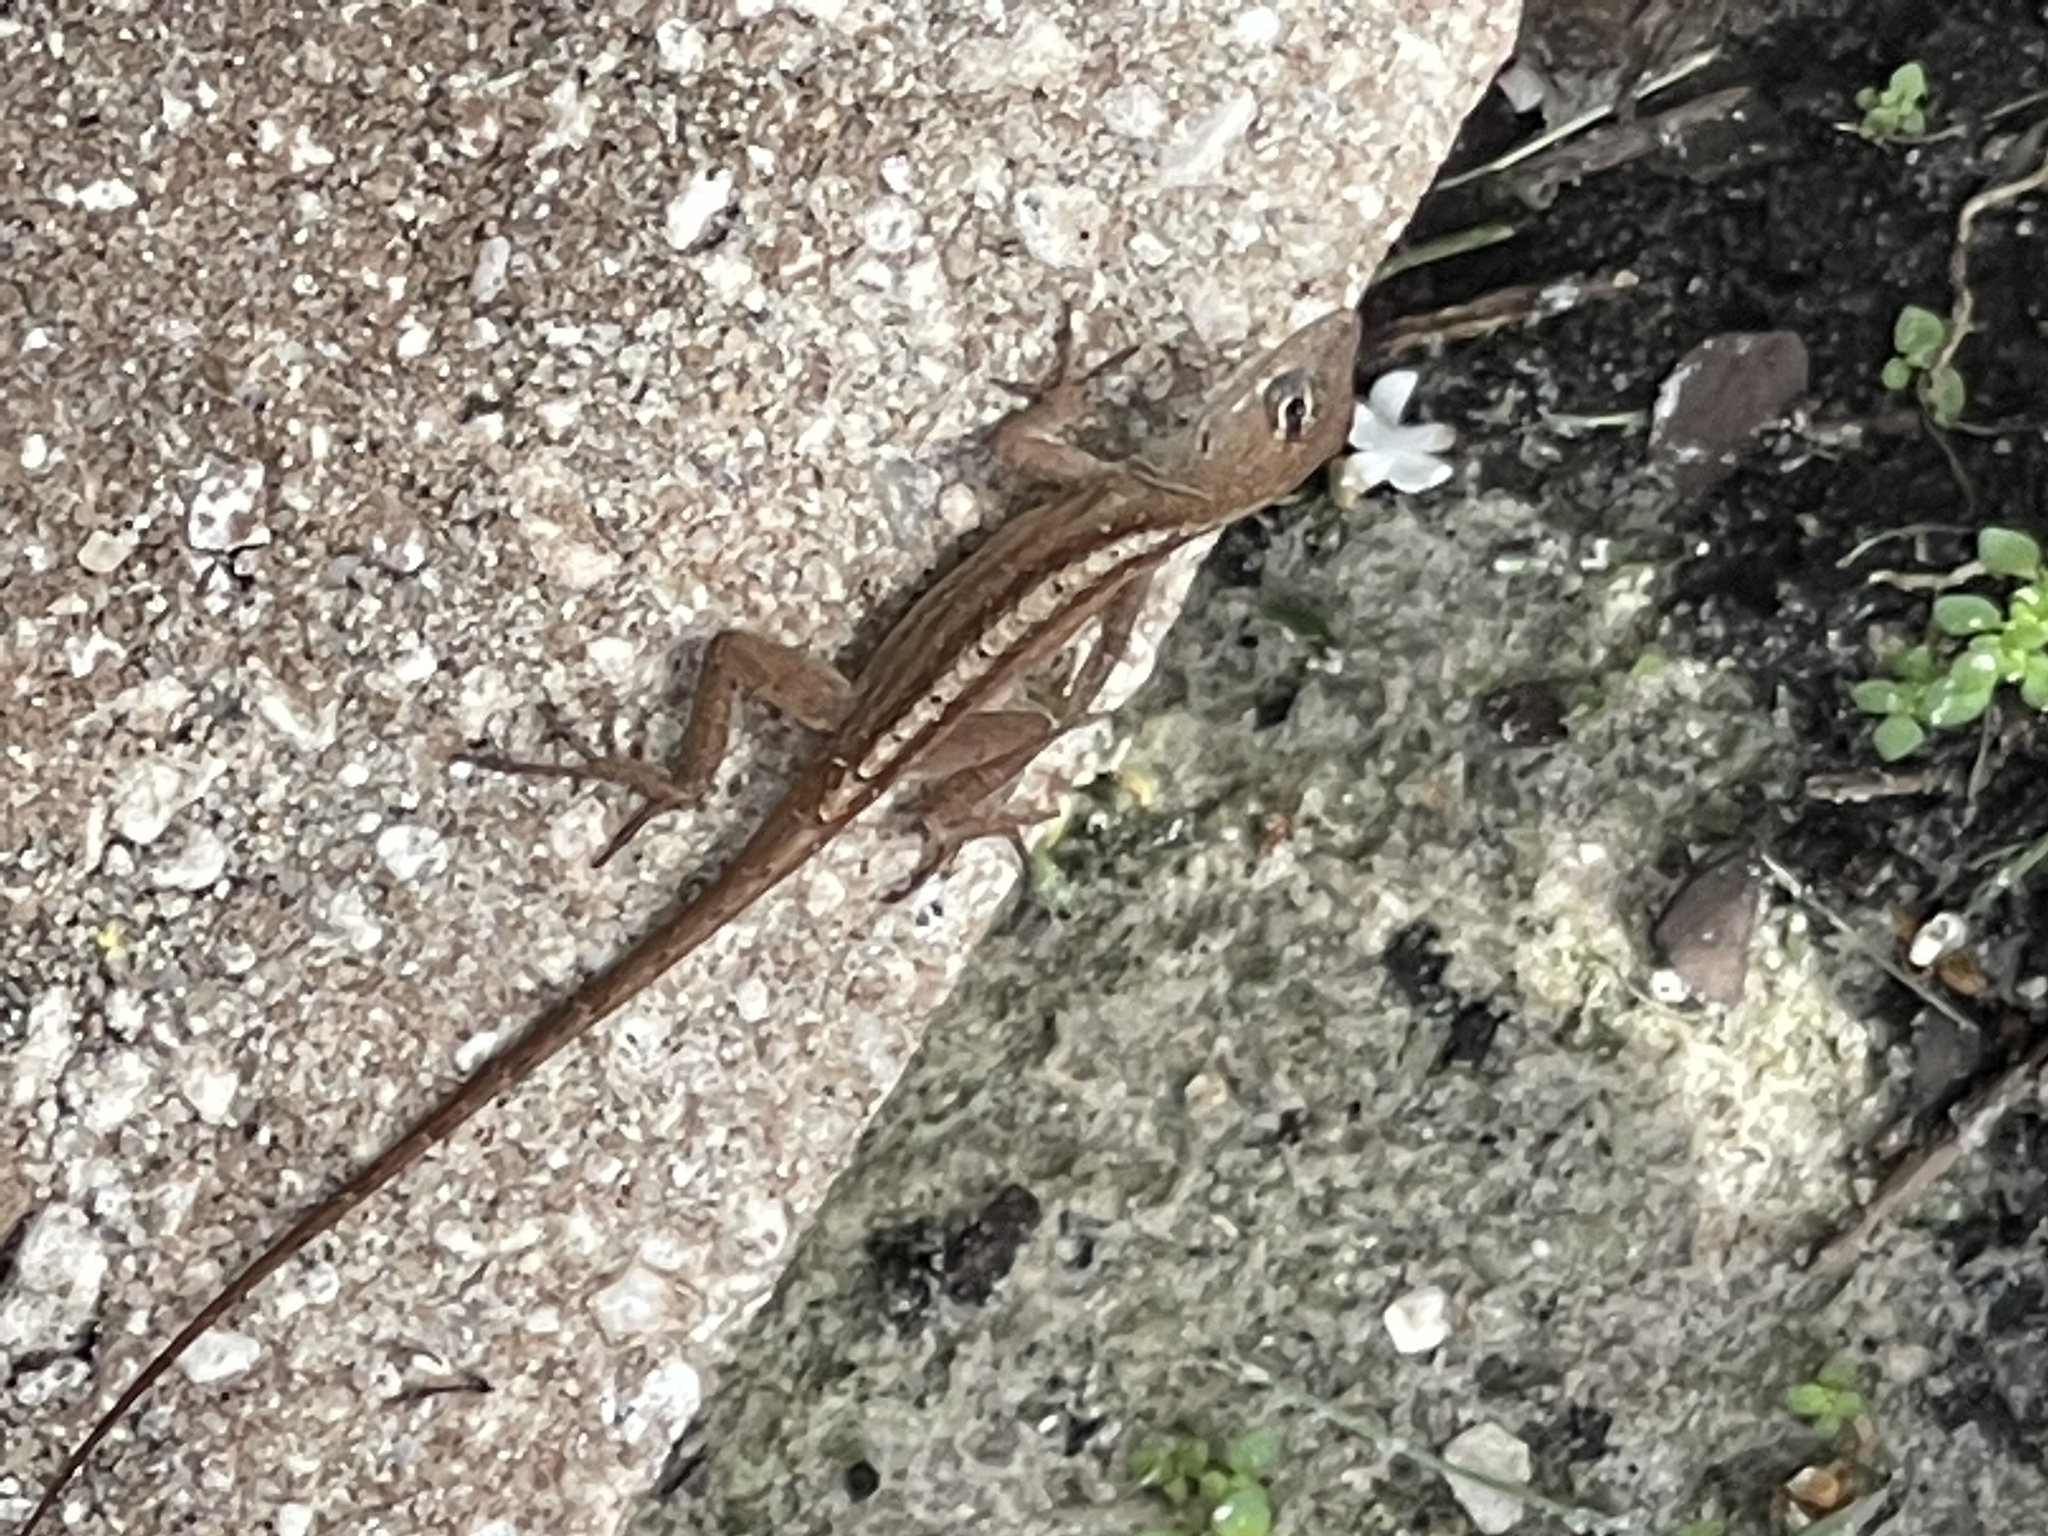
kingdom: Animalia
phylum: Chordata
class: Squamata
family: Dactyloidae
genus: Anolis
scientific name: Anolis sagrei
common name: Brown anole
